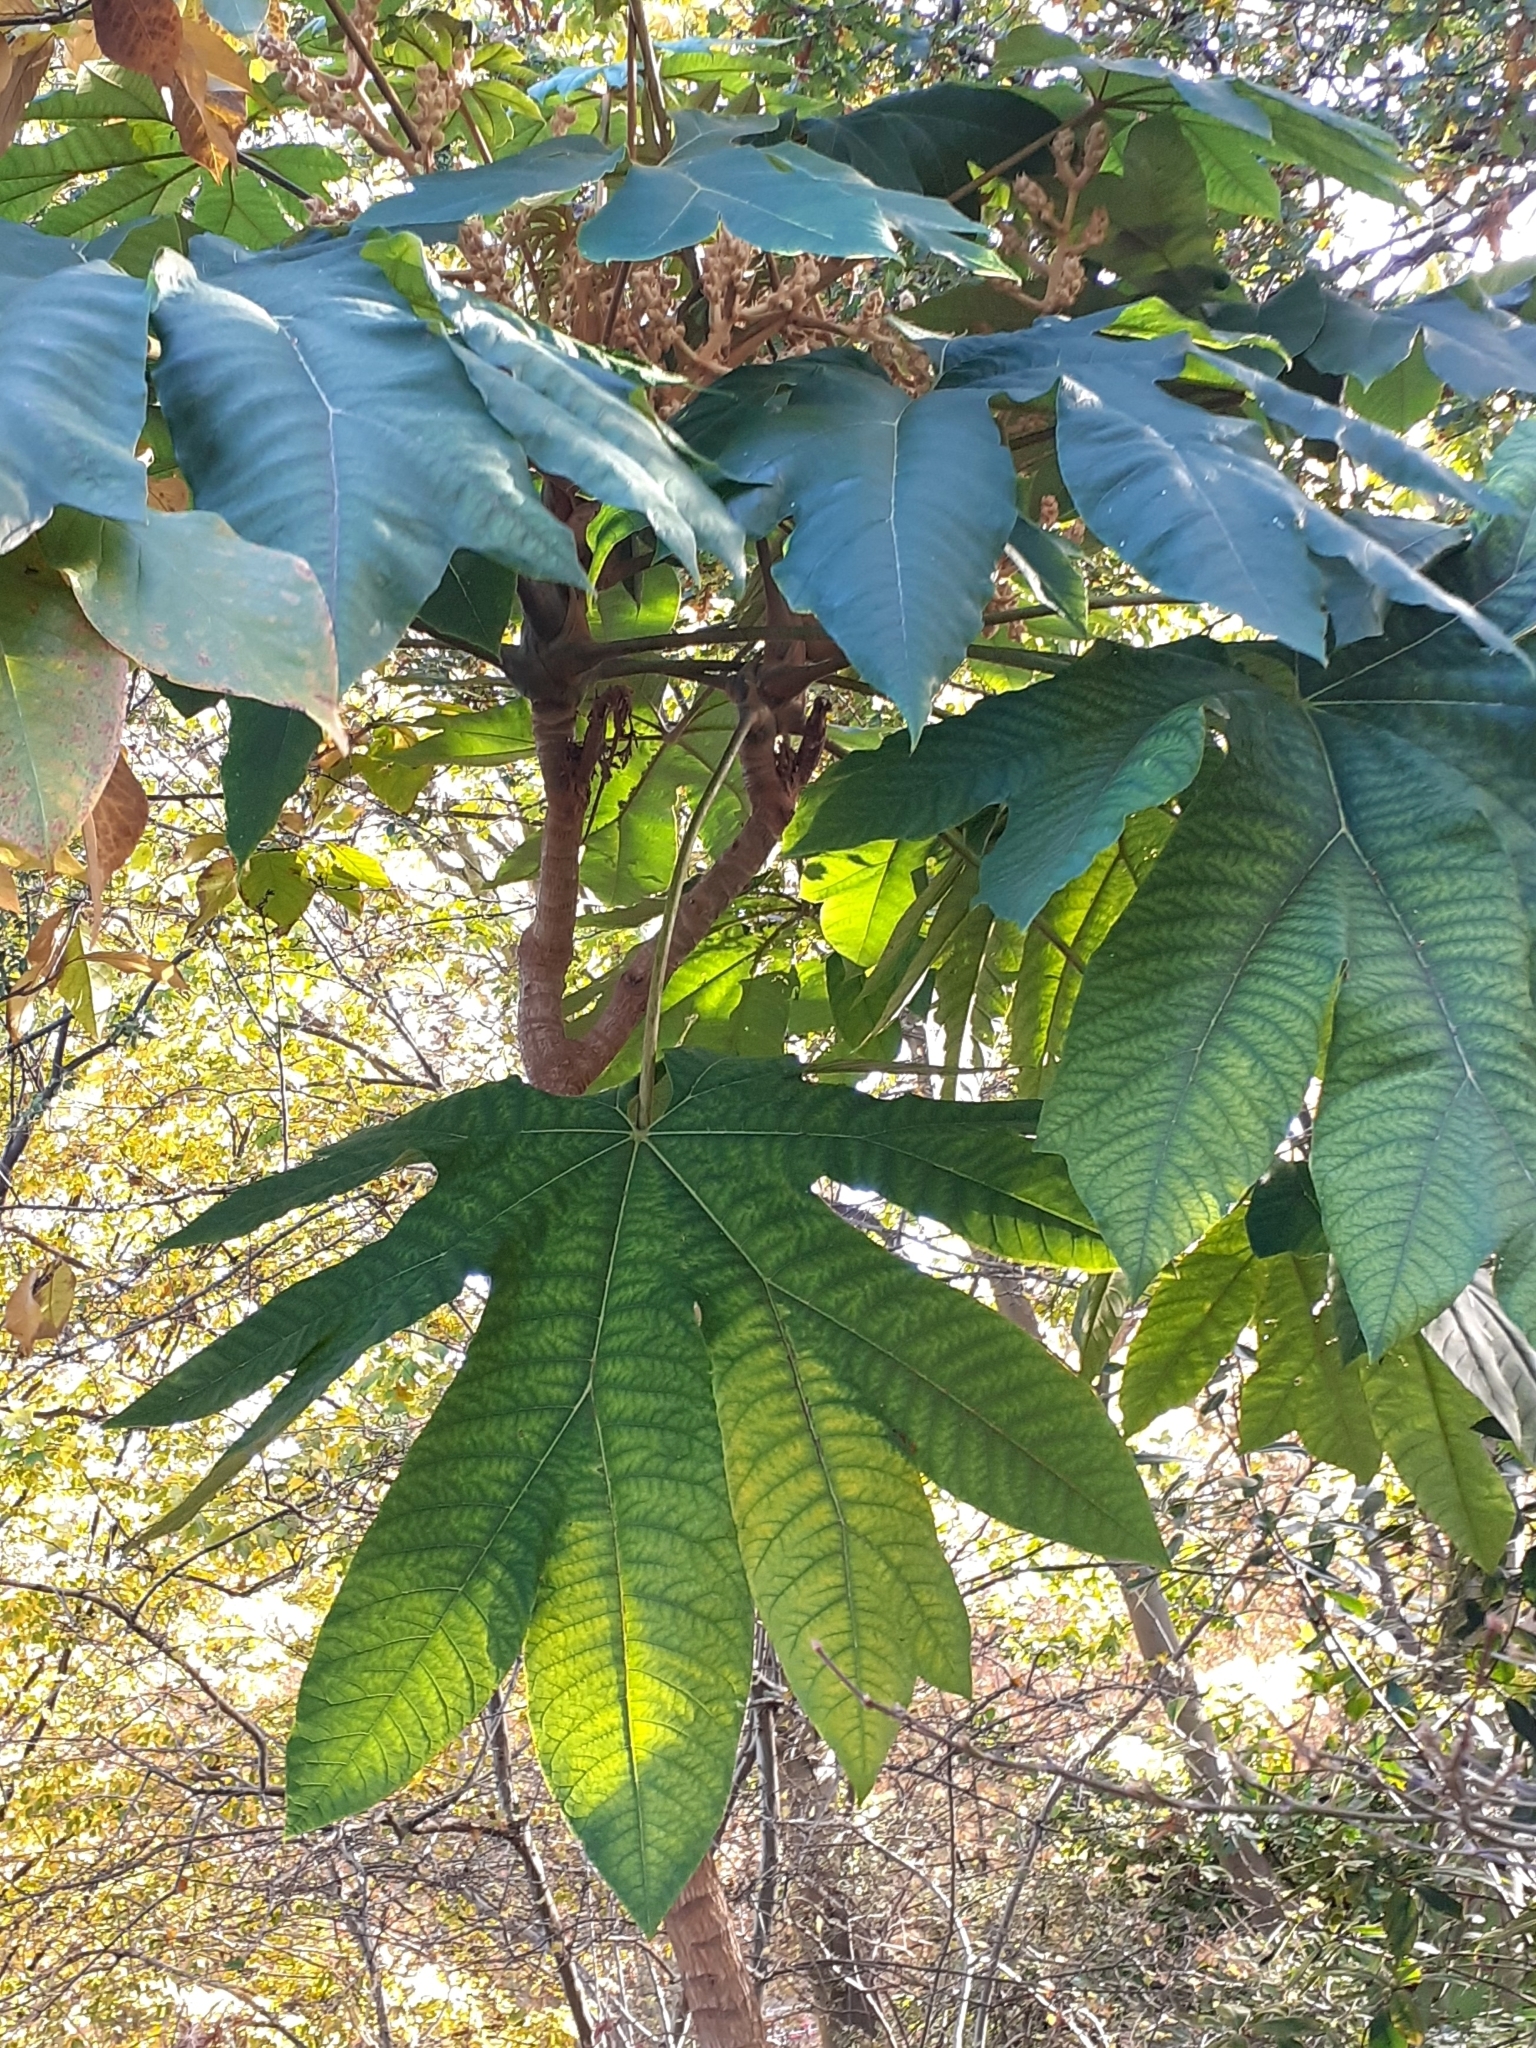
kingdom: Plantae
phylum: Tracheophyta
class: Magnoliopsida
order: Malpighiales
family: Euphorbiaceae
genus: Ricinus
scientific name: Ricinus communis
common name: Castor-oil-plant
